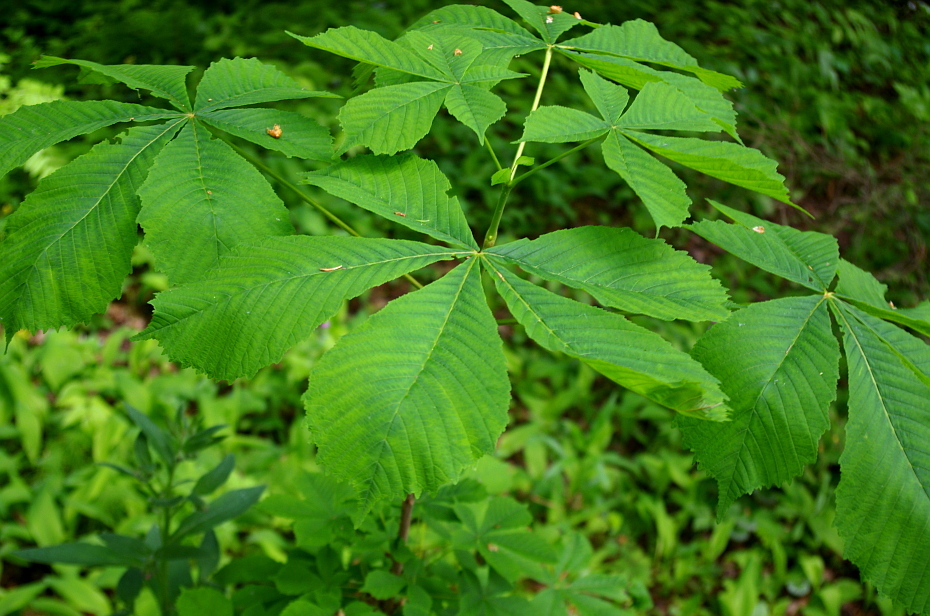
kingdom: Plantae
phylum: Tracheophyta
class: Magnoliopsida
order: Sapindales
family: Sapindaceae
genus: Aesculus
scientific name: Aesculus hippocastanum
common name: Horse-chestnut
